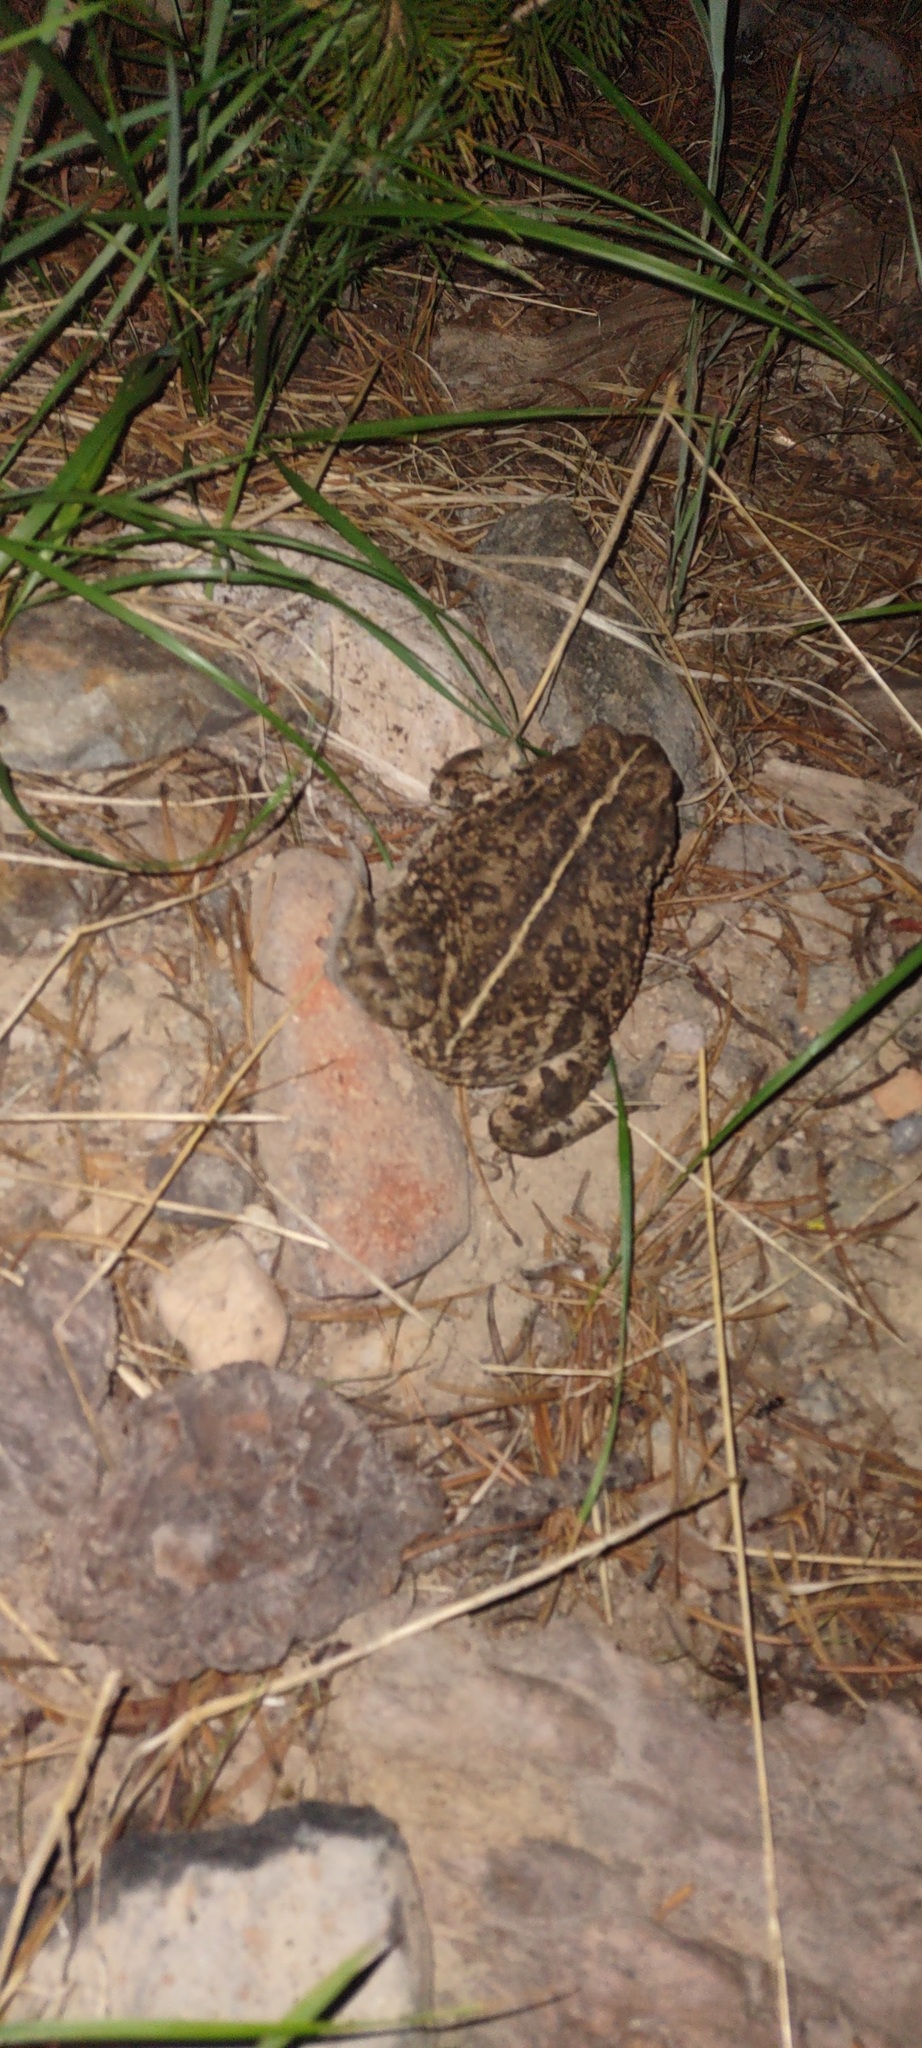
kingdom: Animalia
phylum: Chordata
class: Amphibia
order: Anura
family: Bufonidae
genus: Anaxyrus
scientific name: Anaxyrus boreas
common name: Western toad
